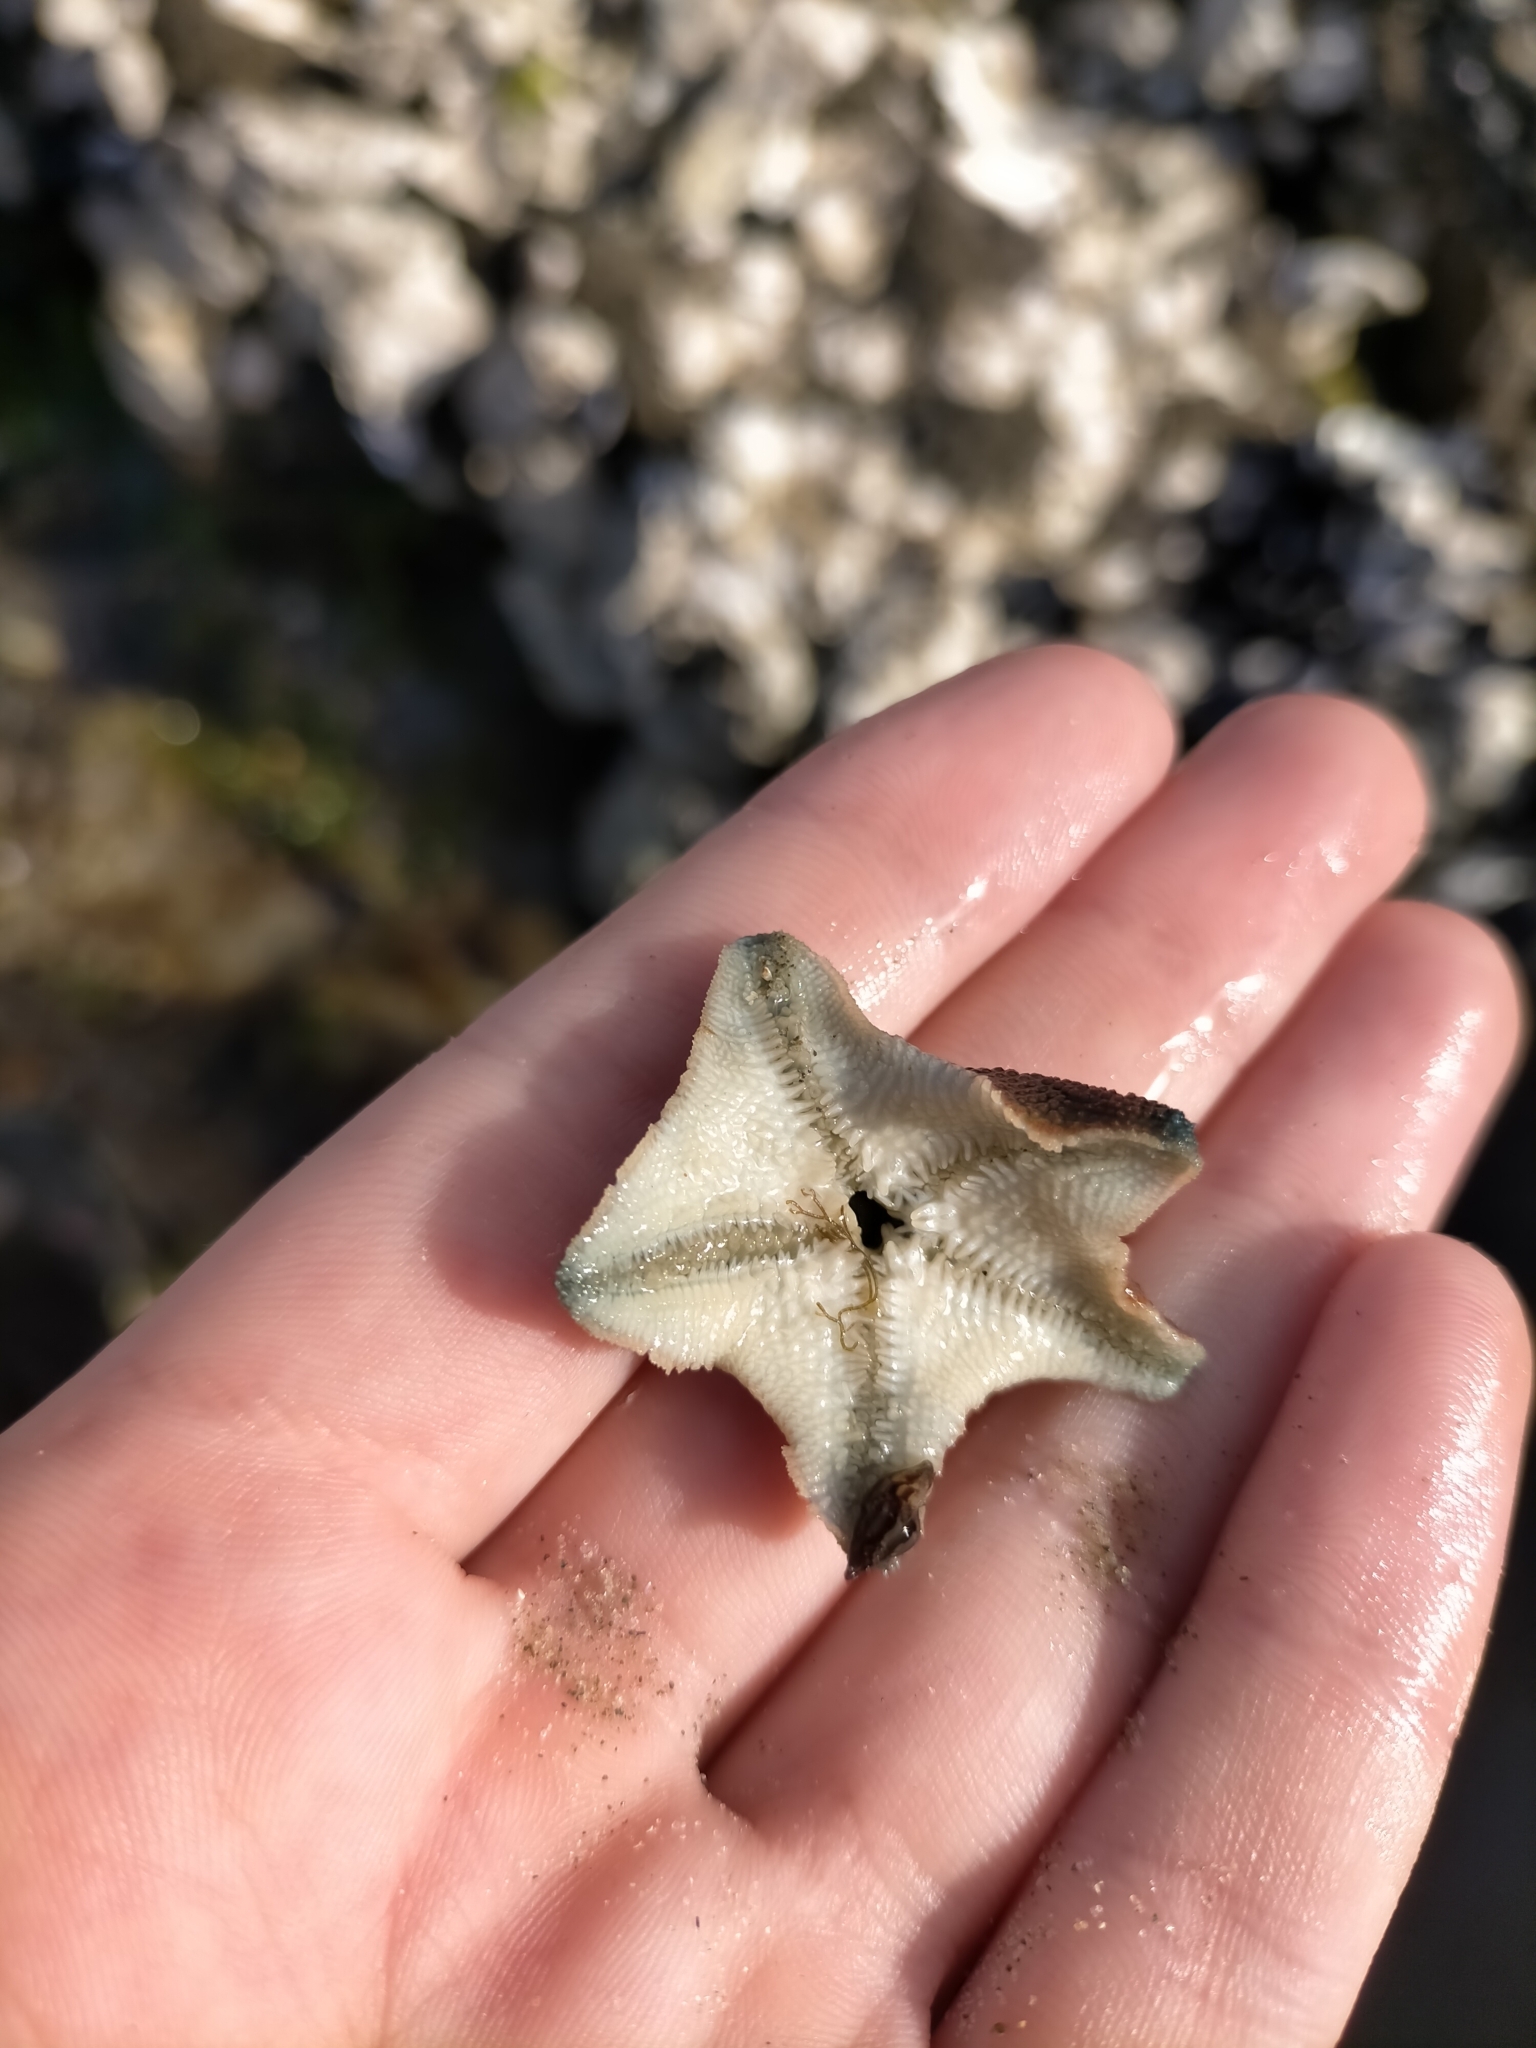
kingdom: Animalia
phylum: Echinodermata
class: Asteroidea
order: Valvatida
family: Asterinidae
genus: Patiriella
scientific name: Patiriella regularis
